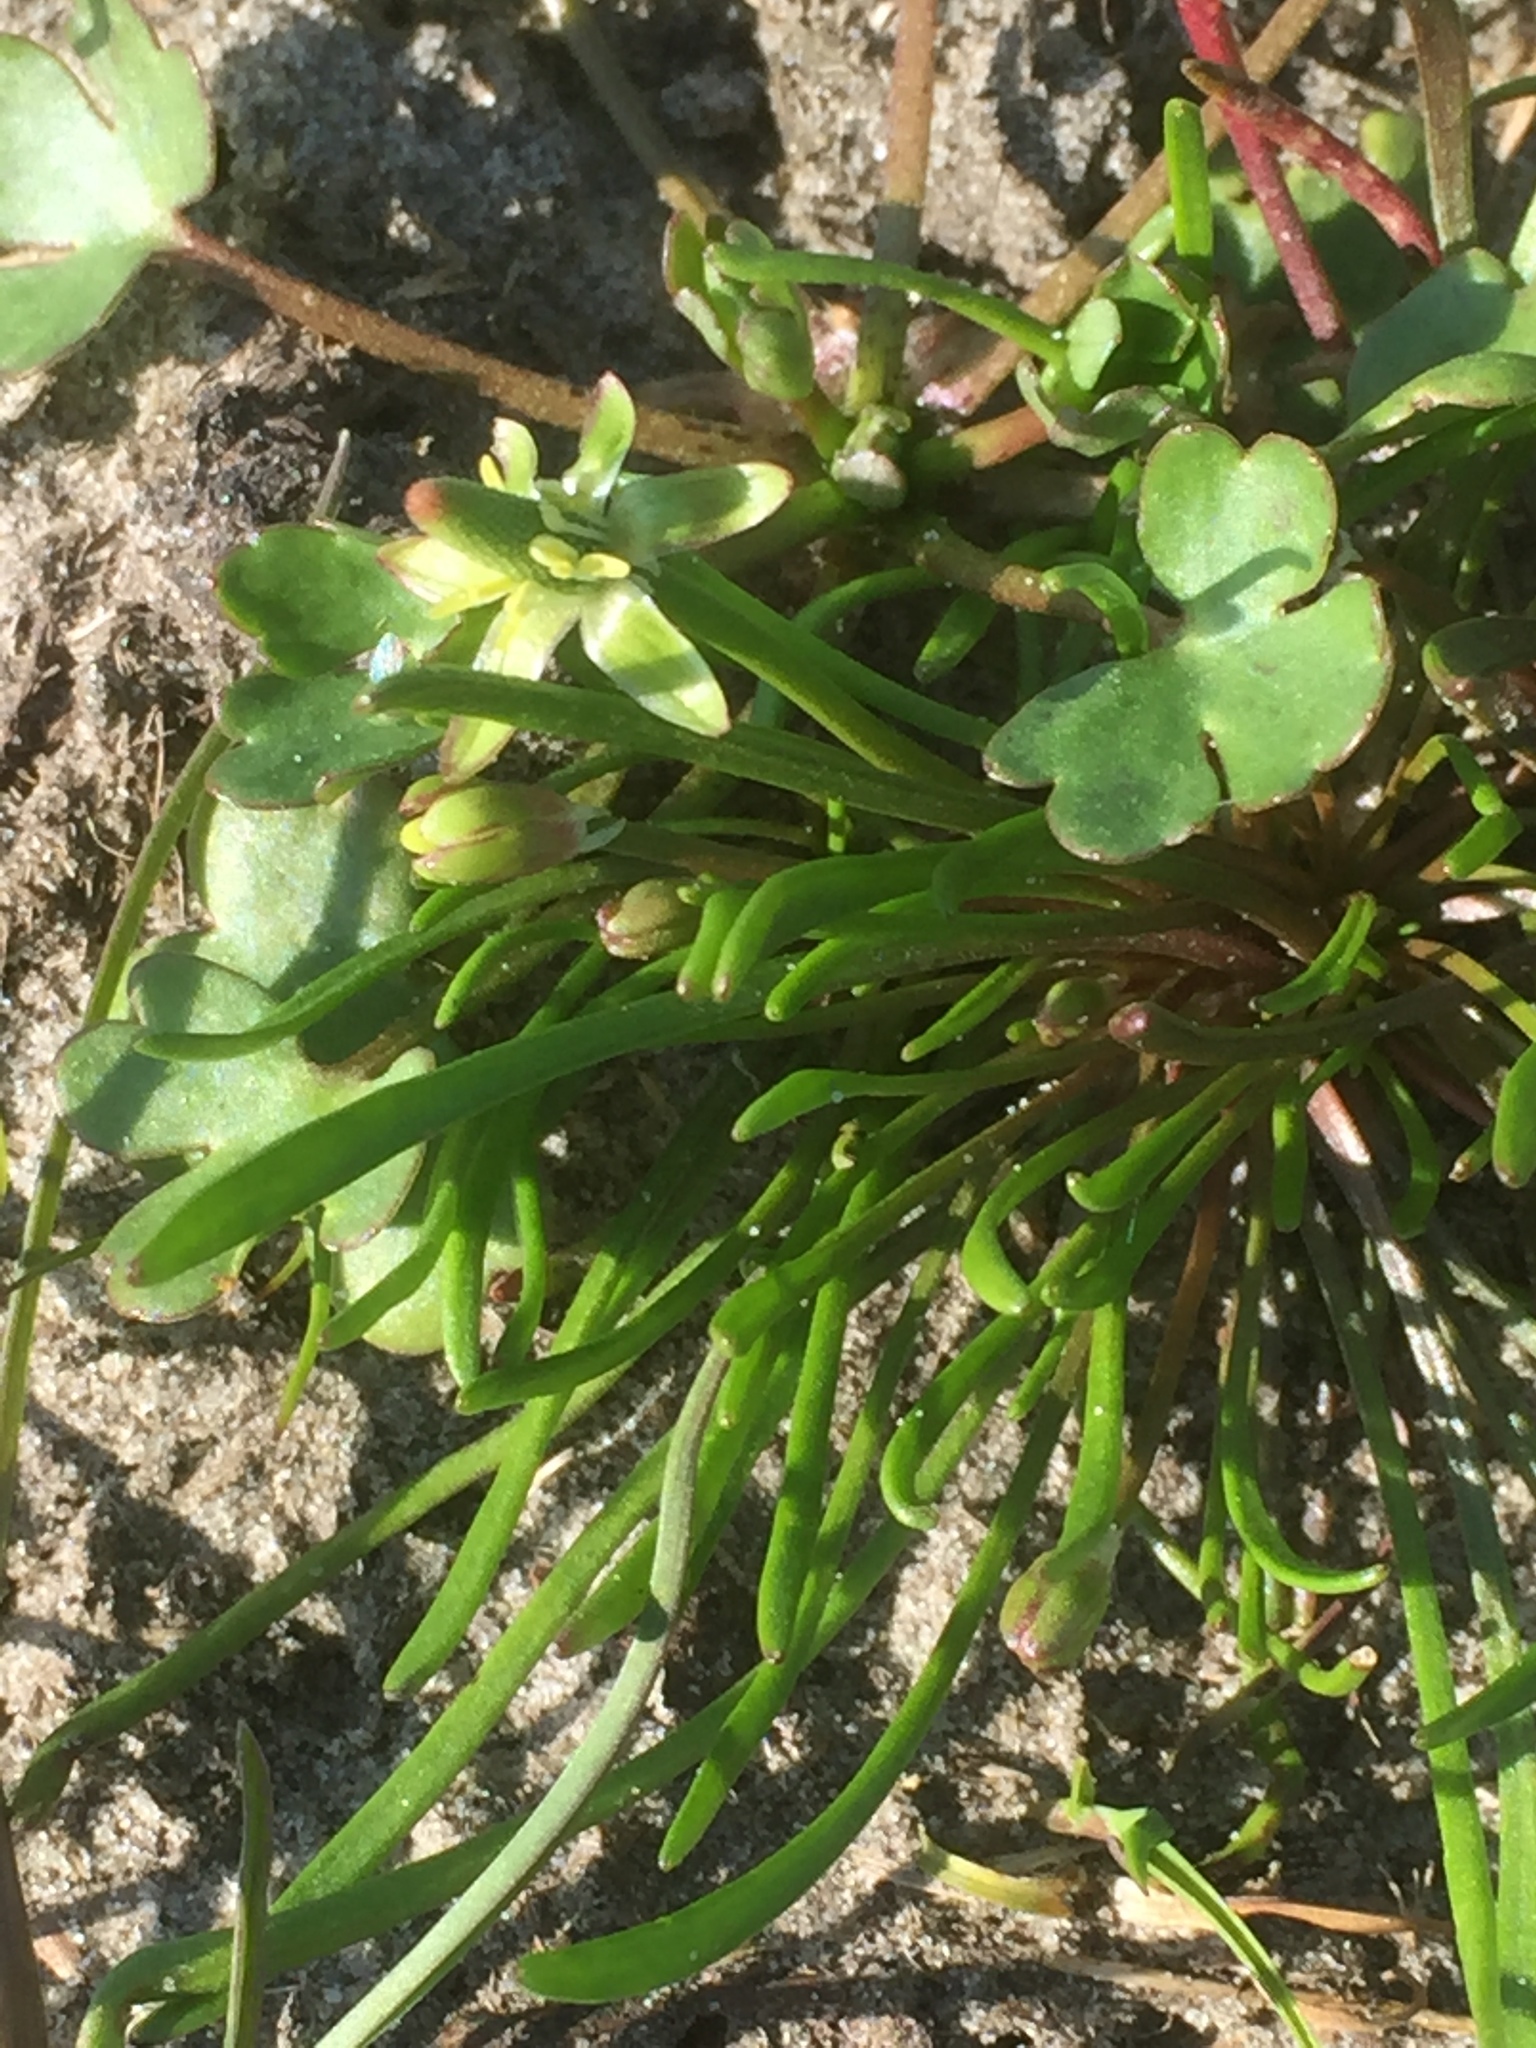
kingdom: Plantae
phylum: Tracheophyta
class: Magnoliopsida
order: Ranunculales
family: Ranunculaceae
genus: Myosurus
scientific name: Myosurus minimus
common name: Mousetail
